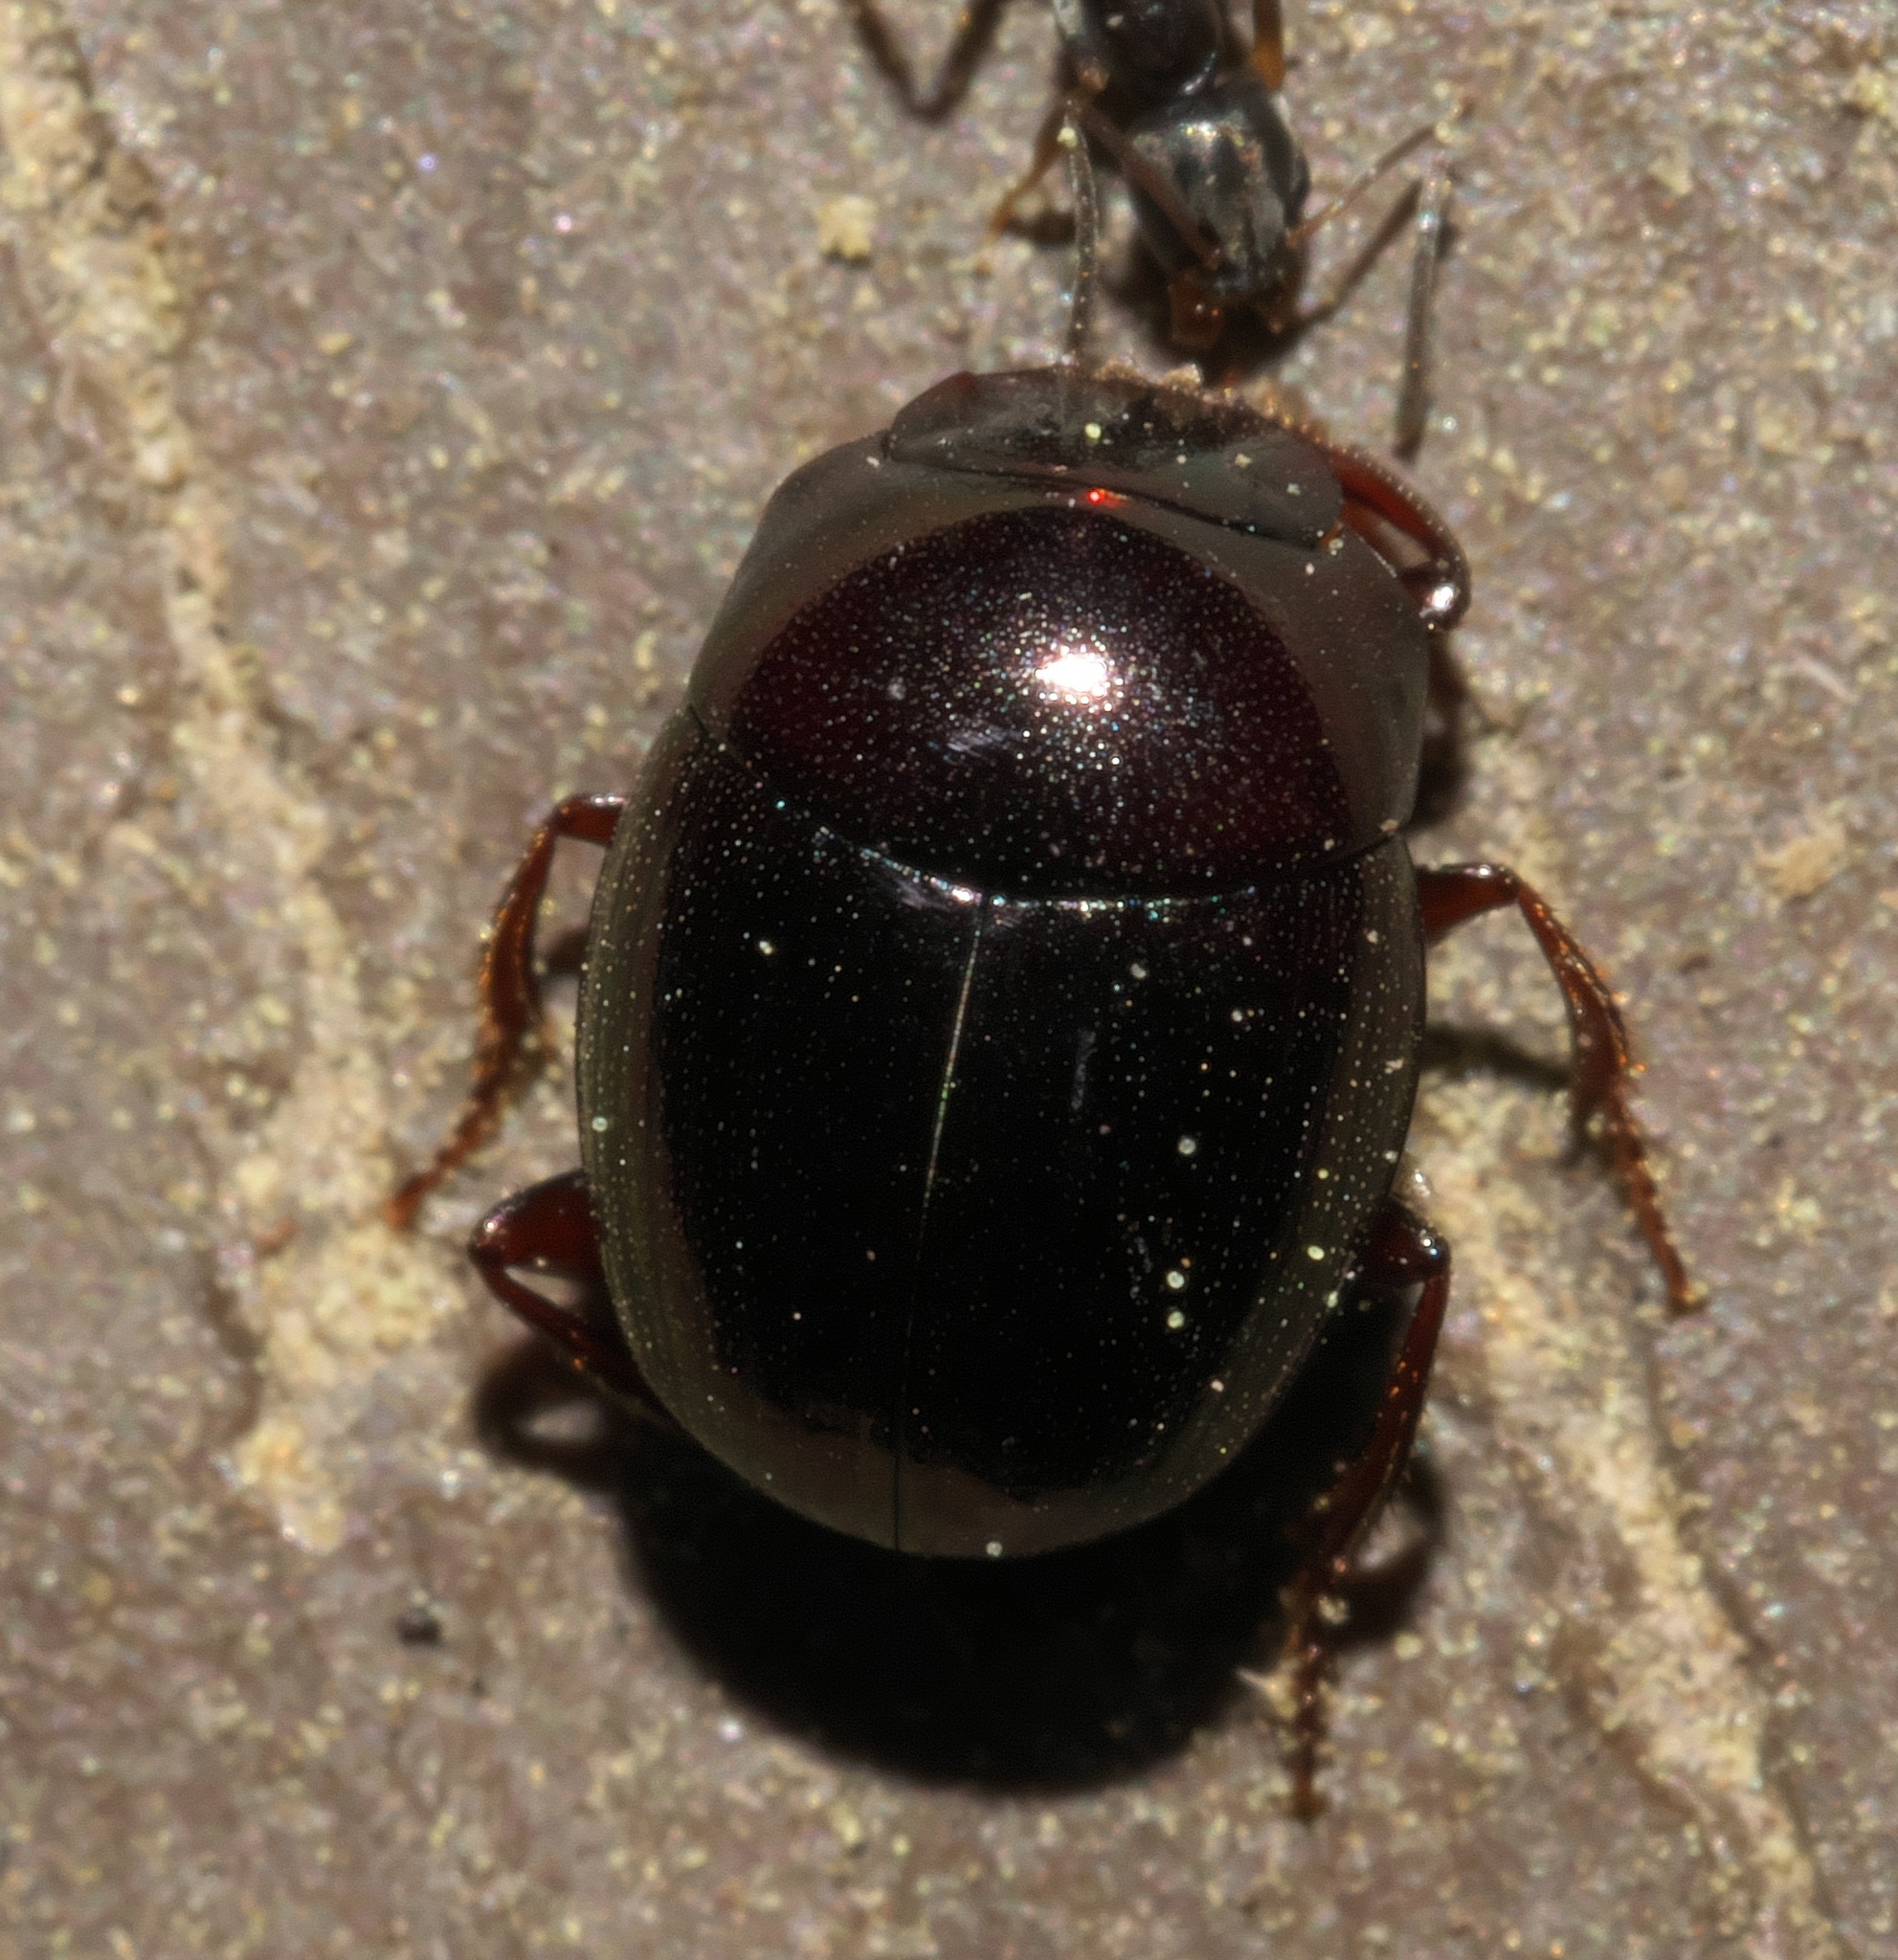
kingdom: Animalia
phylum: Arthropoda
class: Insecta
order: Coleoptera
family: Scarabaeidae
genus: Pseudocanthon
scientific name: Pseudocanthon perplexus
